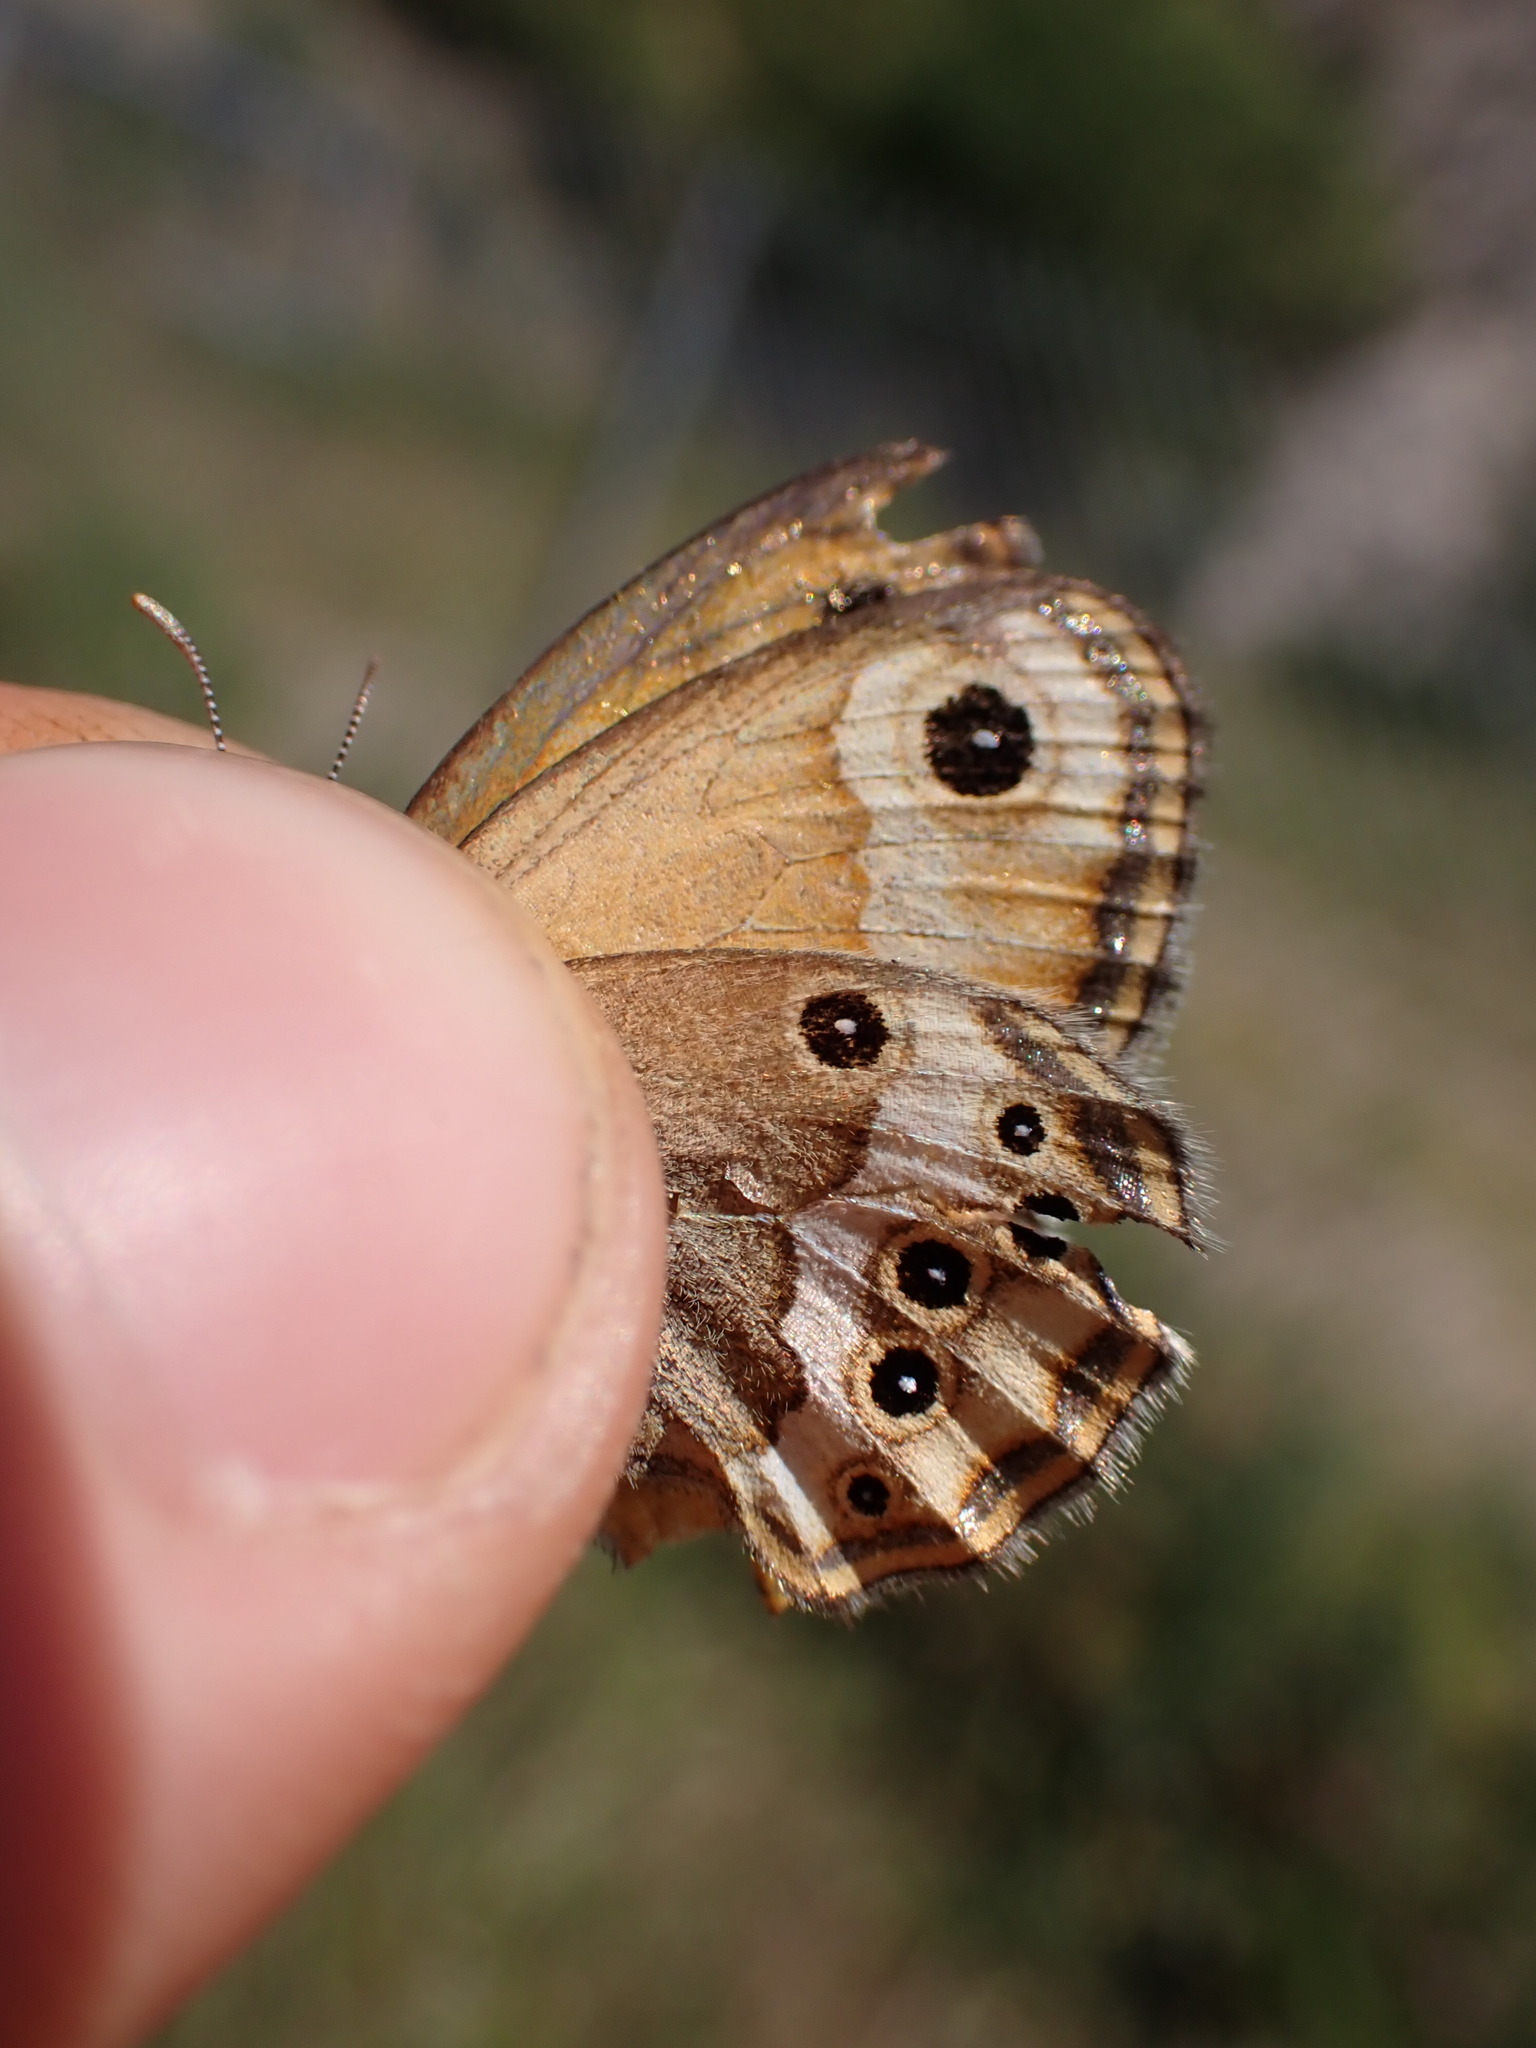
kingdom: Animalia
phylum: Arthropoda
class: Insecta
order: Lepidoptera
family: Nymphalidae
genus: Coenonympha
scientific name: Coenonympha dorus
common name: Dusky heath
